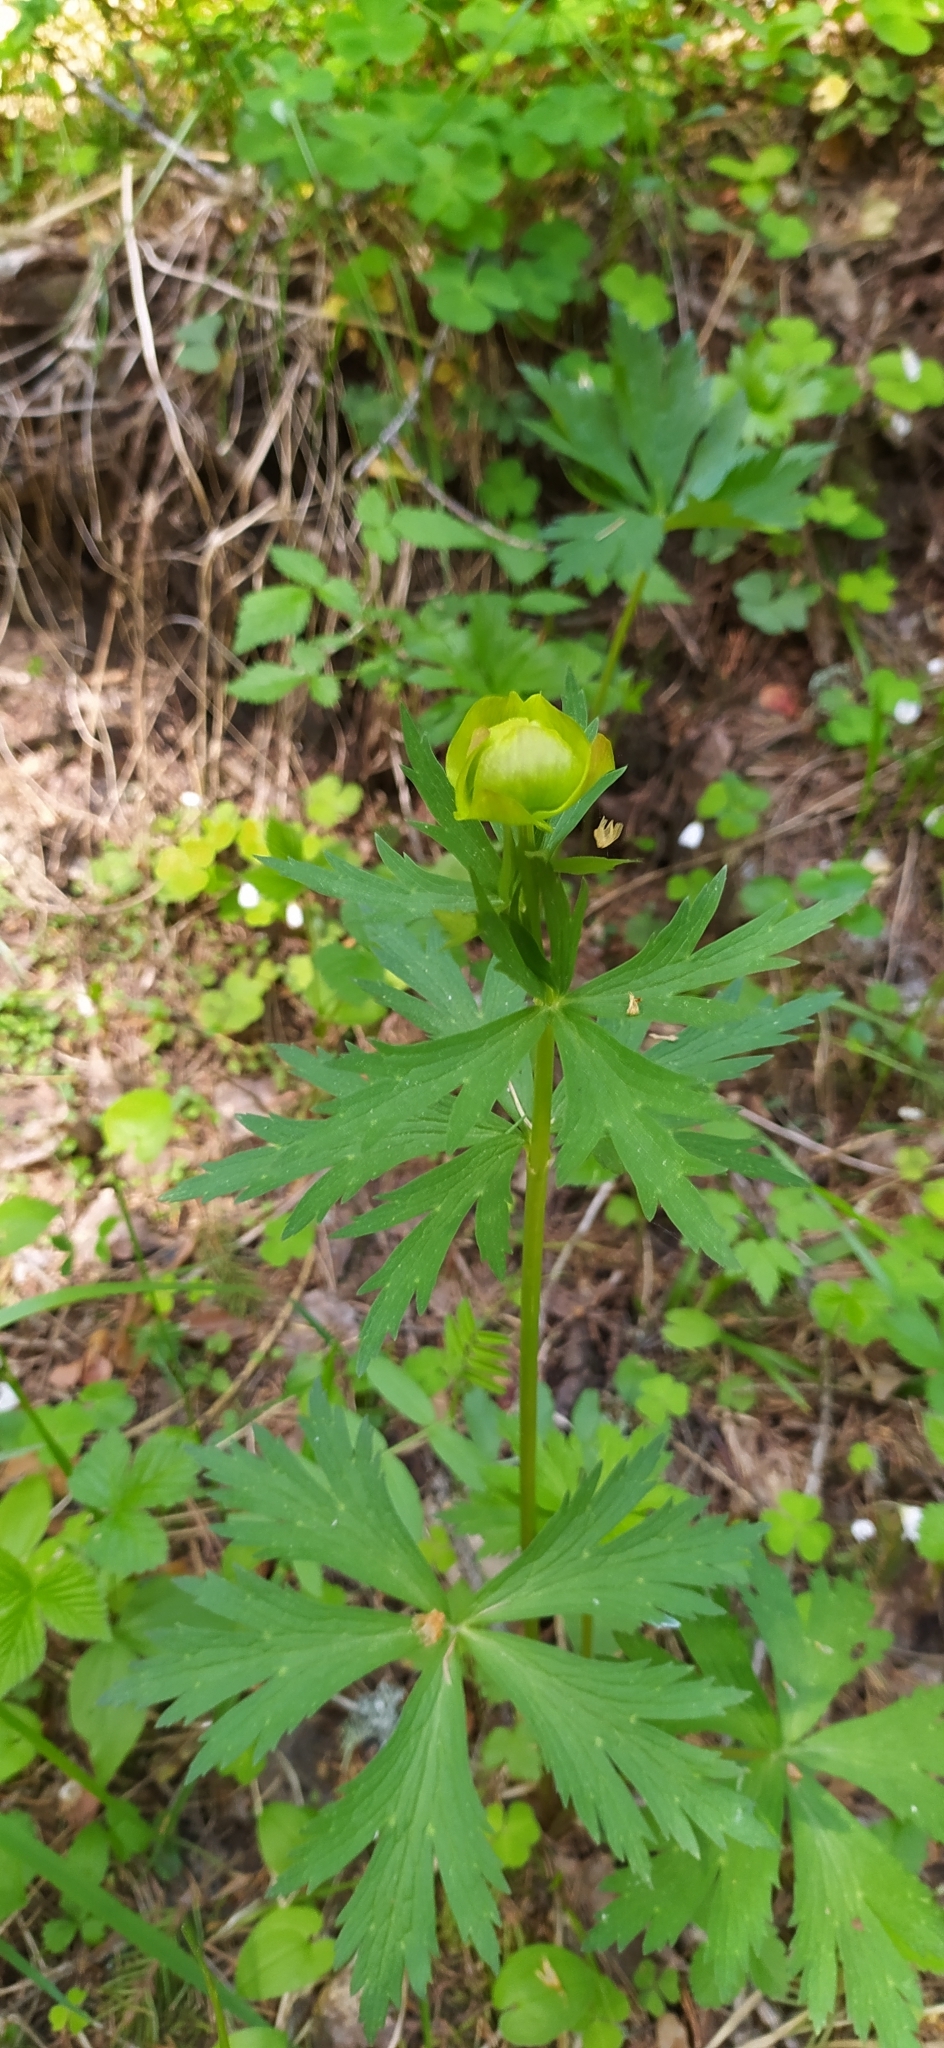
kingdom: Plantae
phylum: Tracheophyta
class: Magnoliopsida
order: Ranunculales
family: Ranunculaceae
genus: Trollius
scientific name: Trollius europaeus
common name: European globeflower
